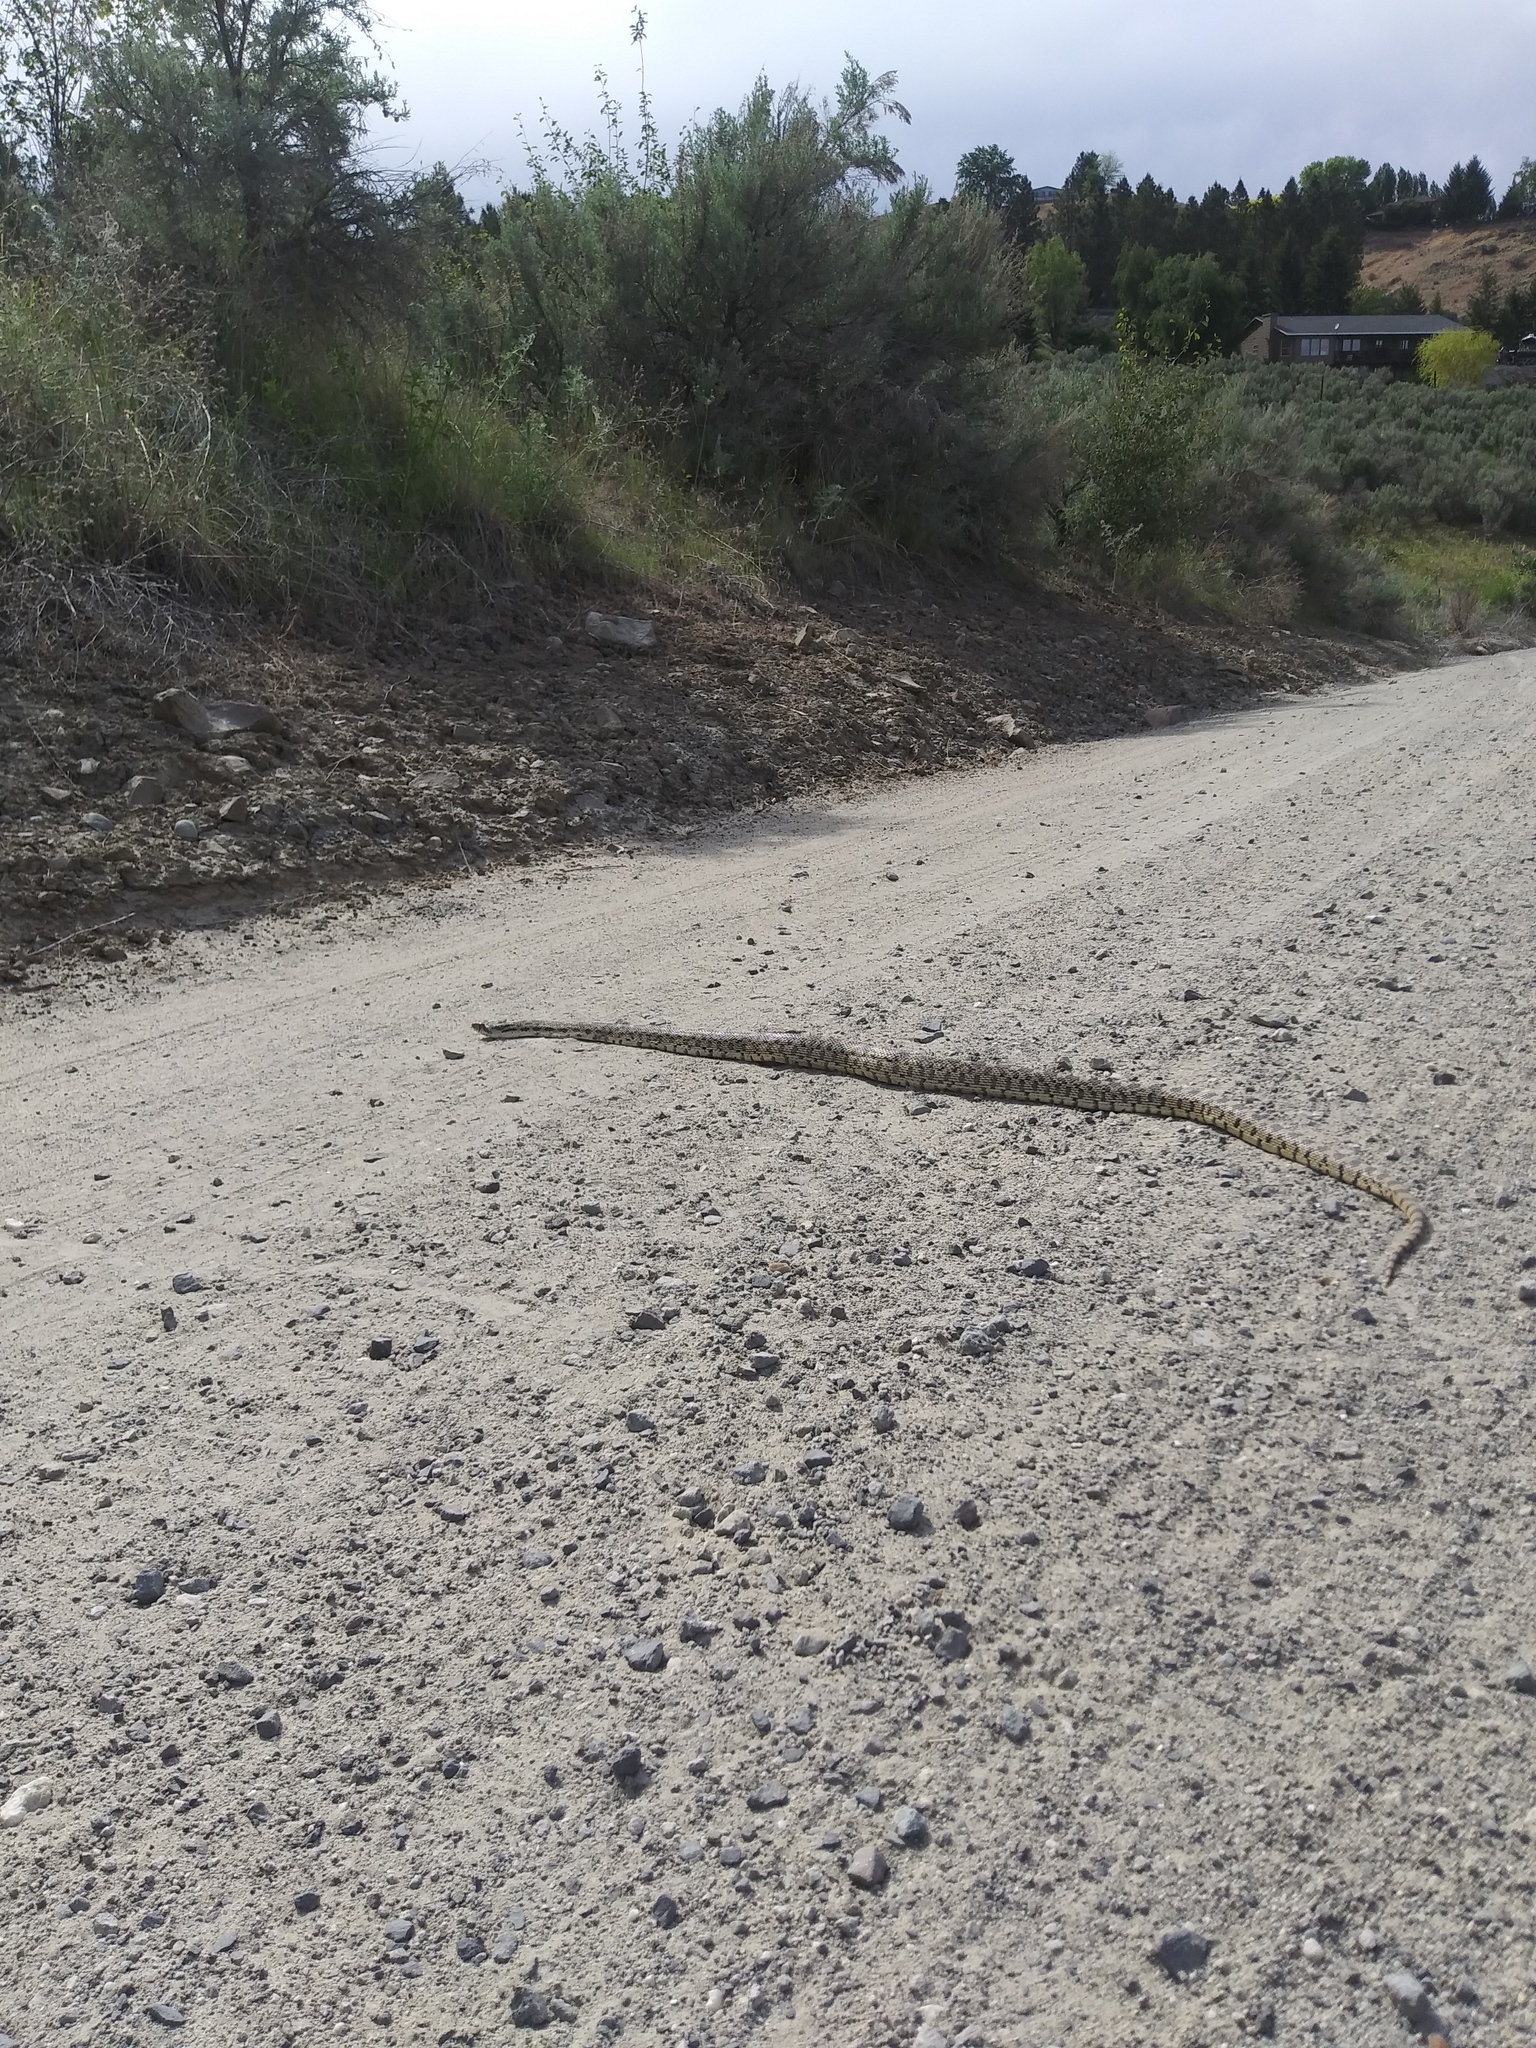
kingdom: Animalia
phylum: Chordata
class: Squamata
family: Colubridae
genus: Pituophis
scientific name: Pituophis catenifer
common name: Gopher snake
